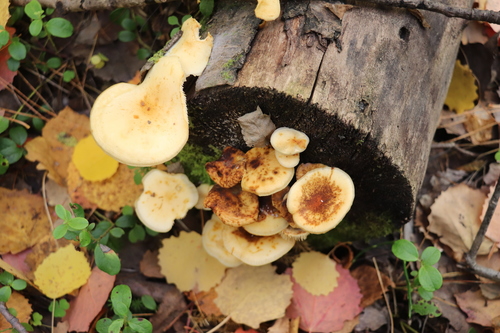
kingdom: Fungi
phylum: Basidiomycota
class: Agaricomycetes
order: Agaricales
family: Physalacriaceae
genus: Flammulina
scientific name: Flammulina velutipes
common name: Velvet shank
